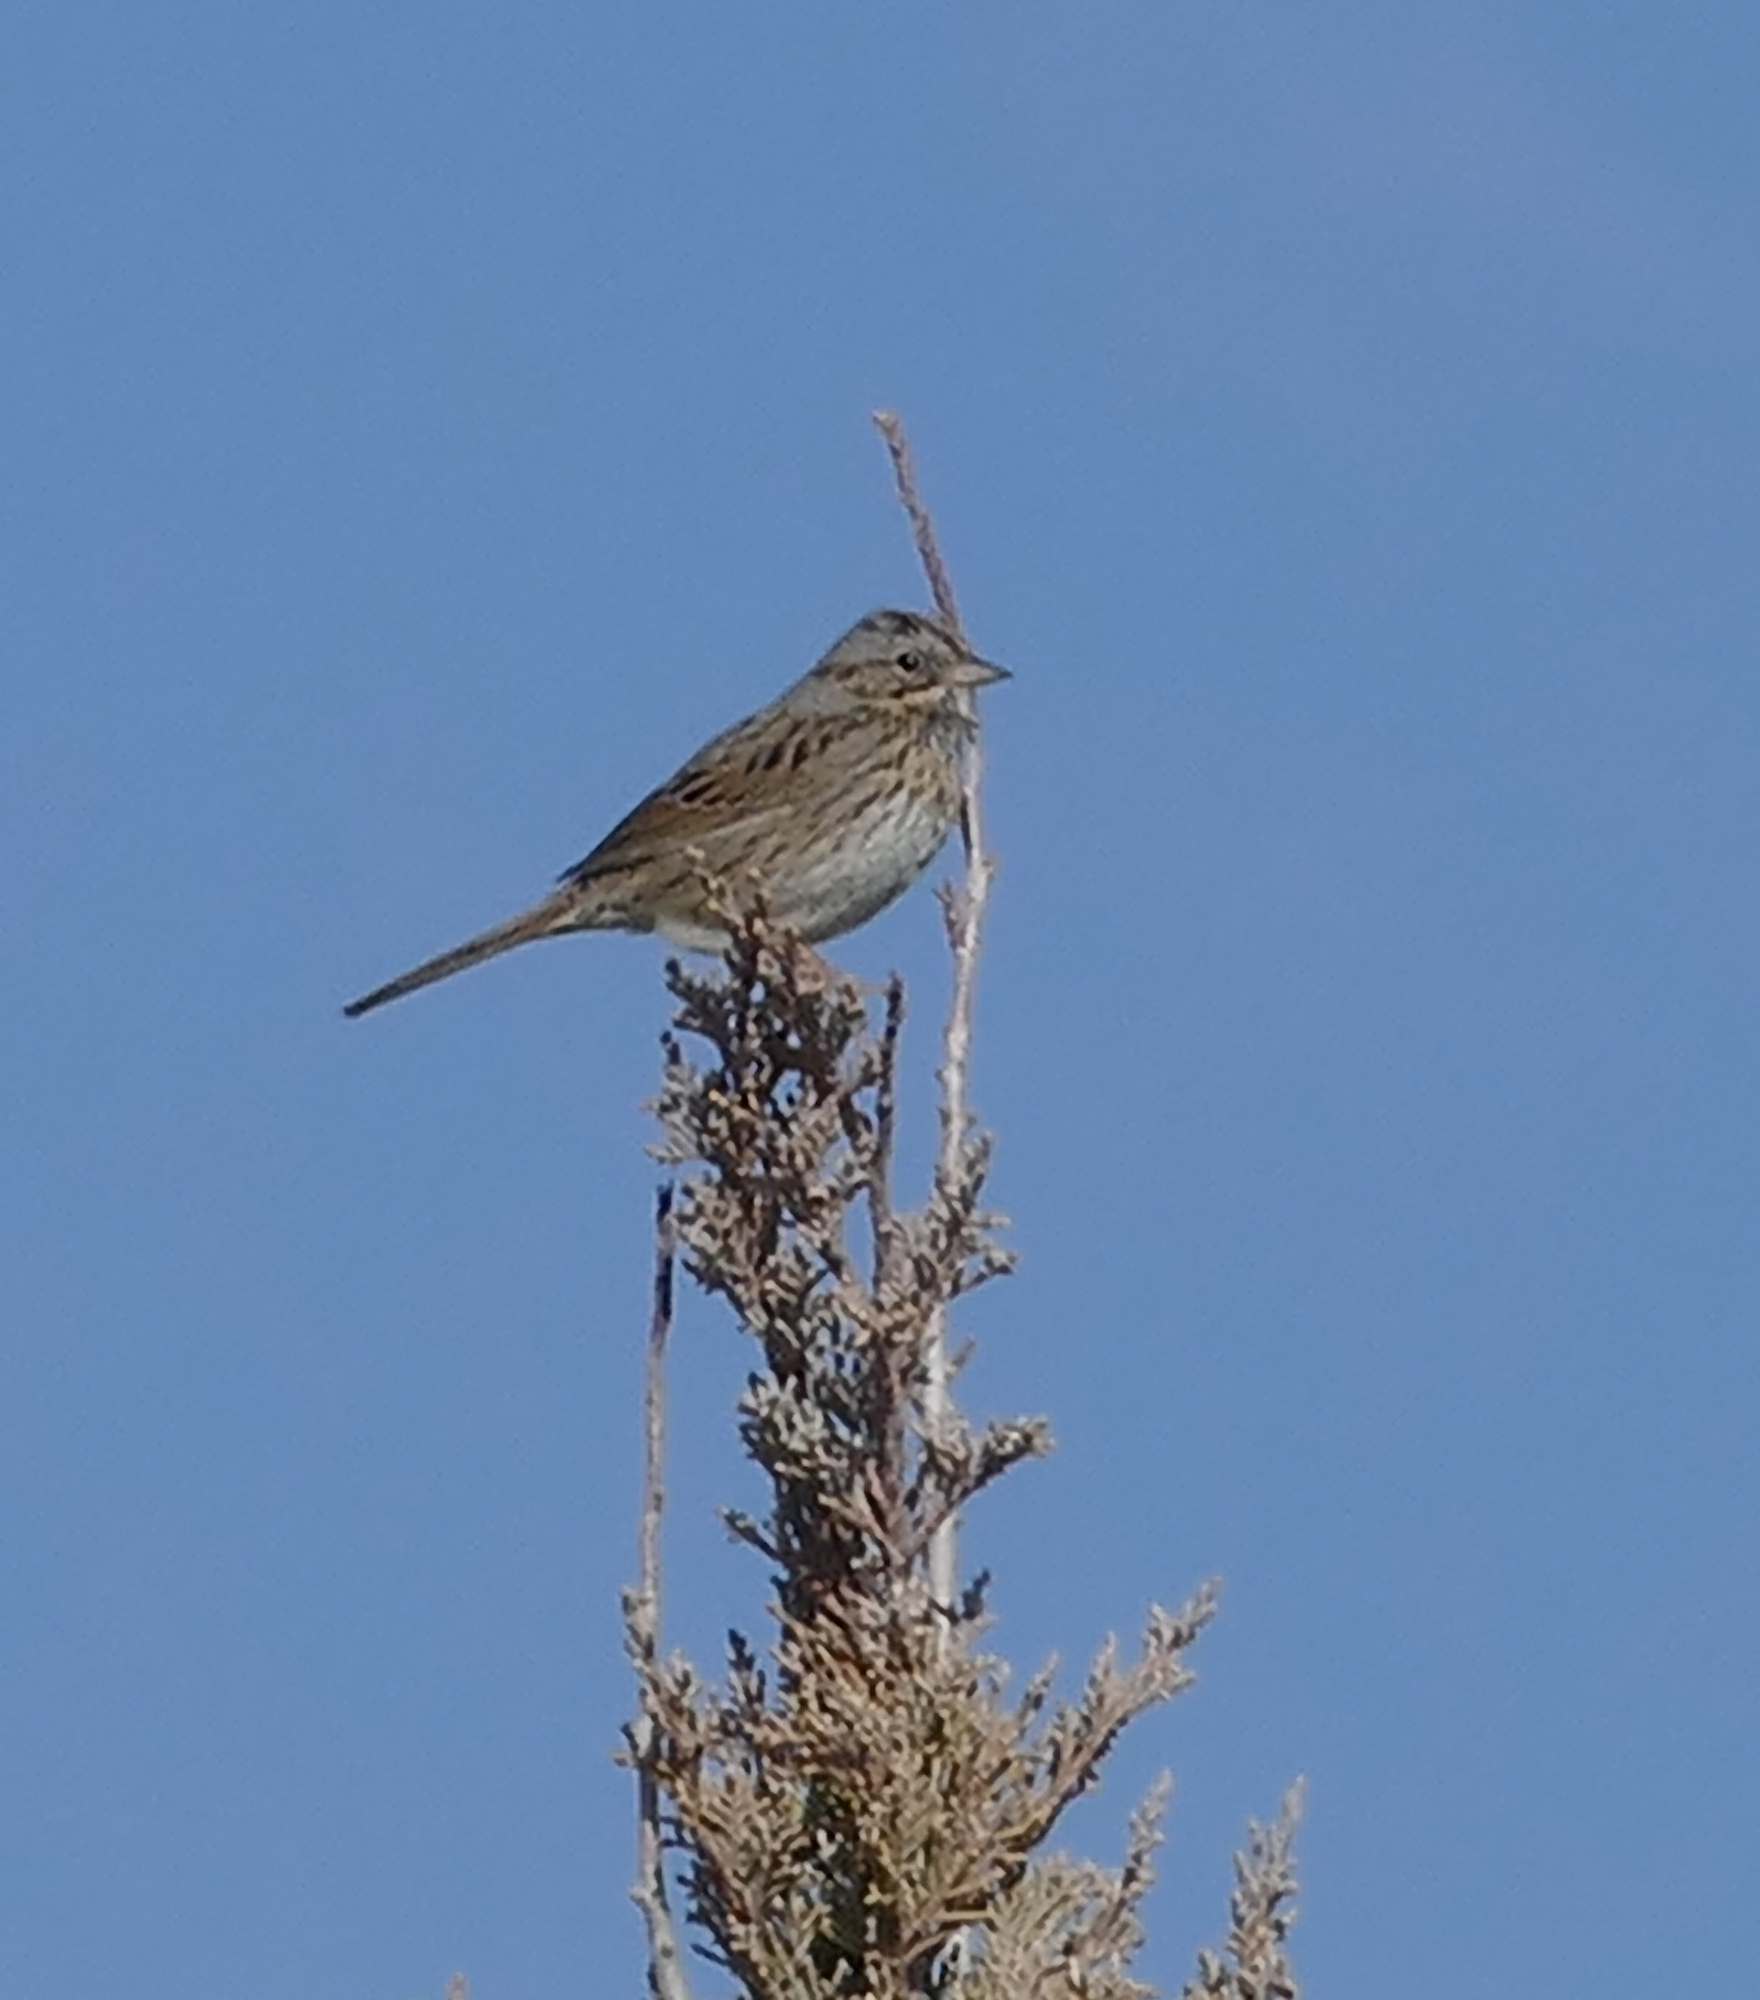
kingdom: Animalia
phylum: Chordata
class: Aves
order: Passeriformes
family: Passerellidae
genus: Melospiza
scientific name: Melospiza lincolnii
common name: Lincoln's sparrow
